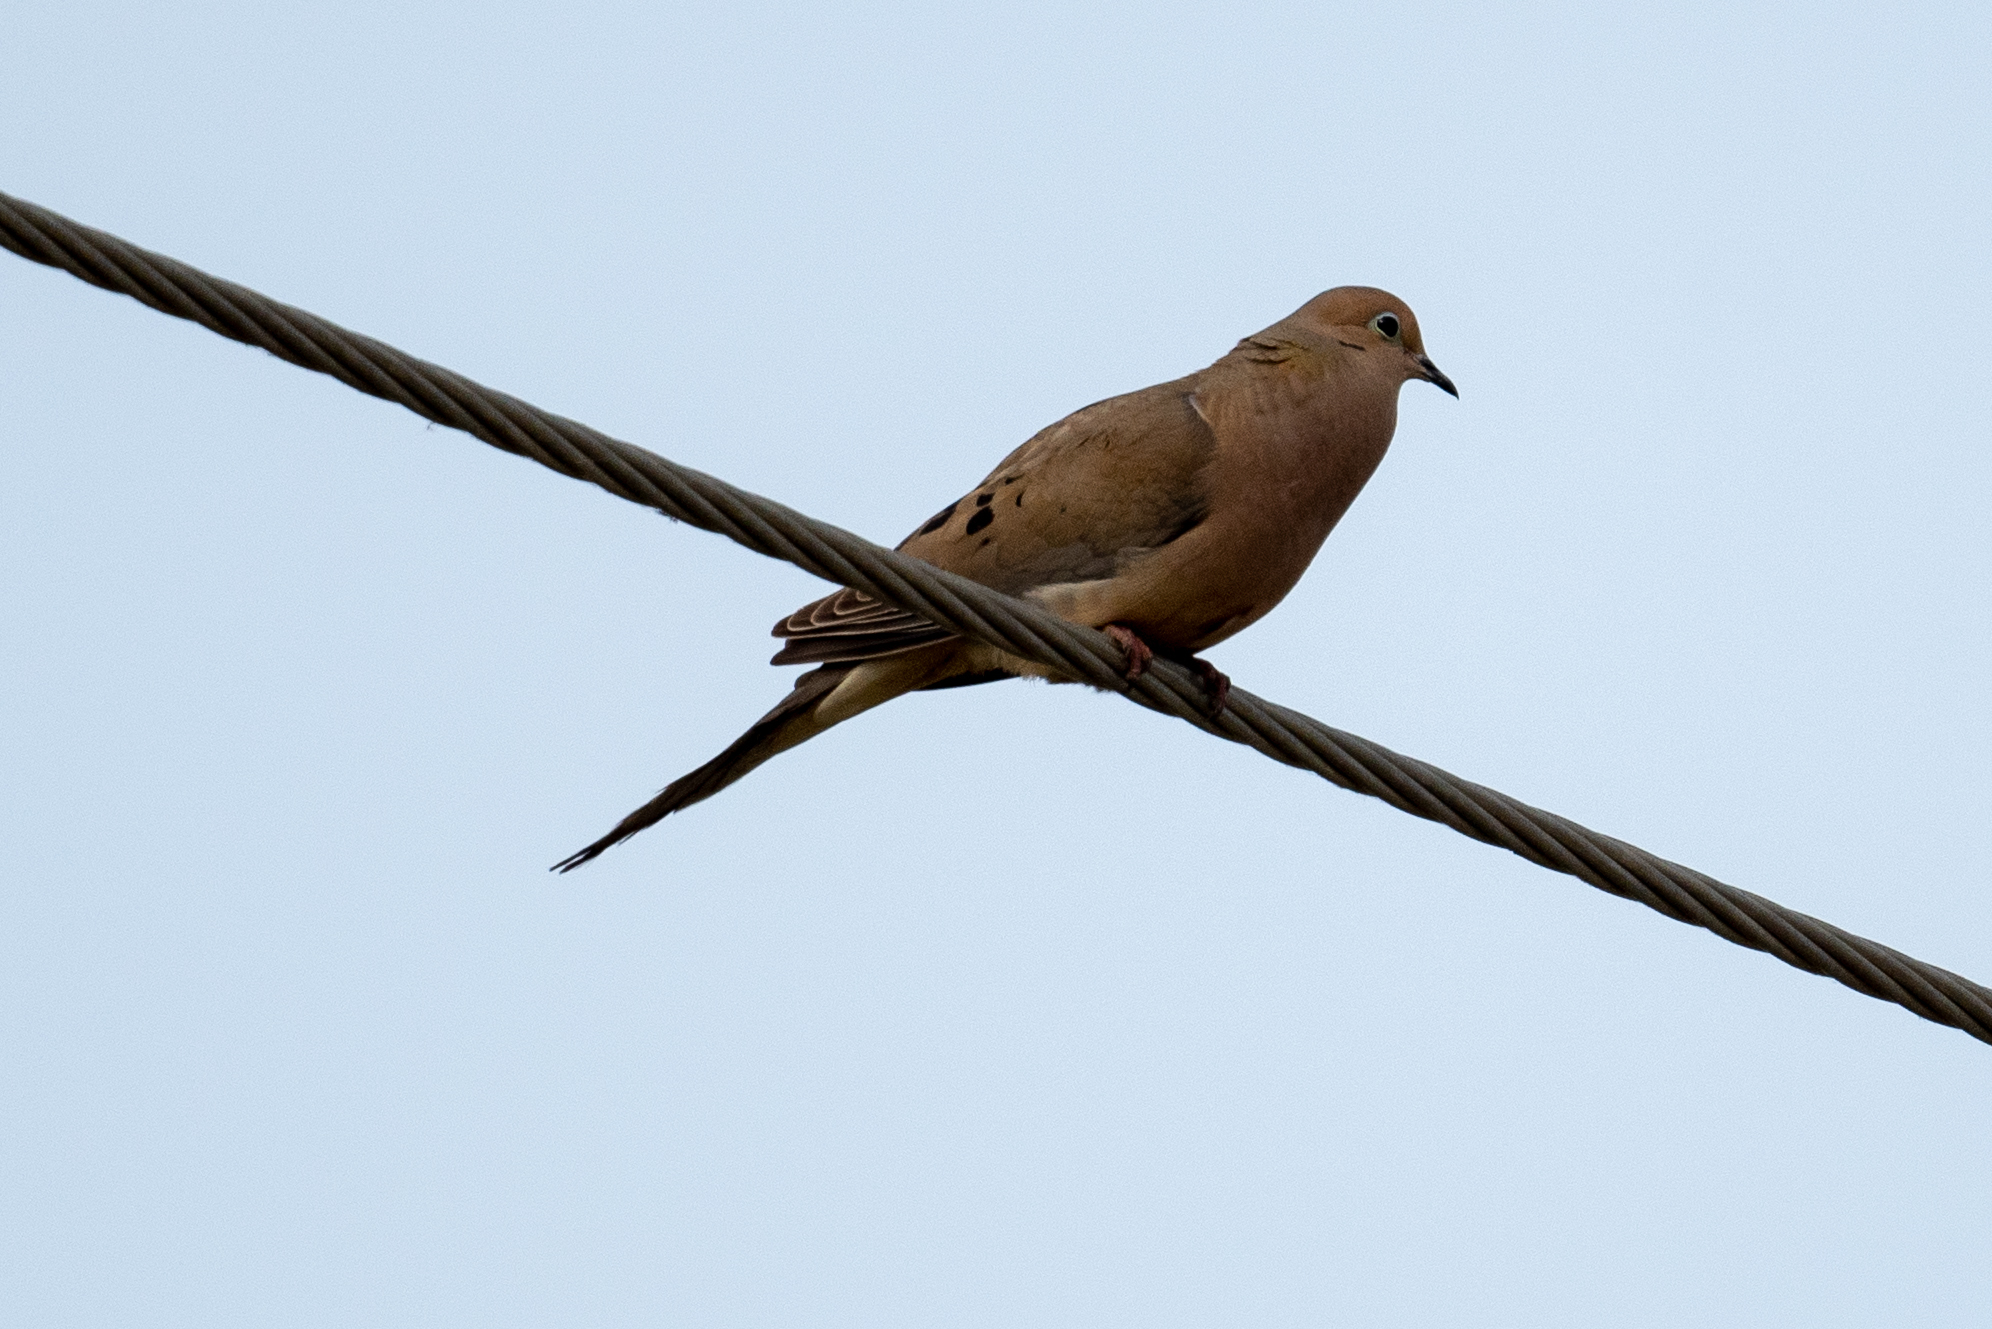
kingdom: Animalia
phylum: Chordata
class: Aves
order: Columbiformes
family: Columbidae
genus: Zenaida
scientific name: Zenaida macroura
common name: Mourning dove
